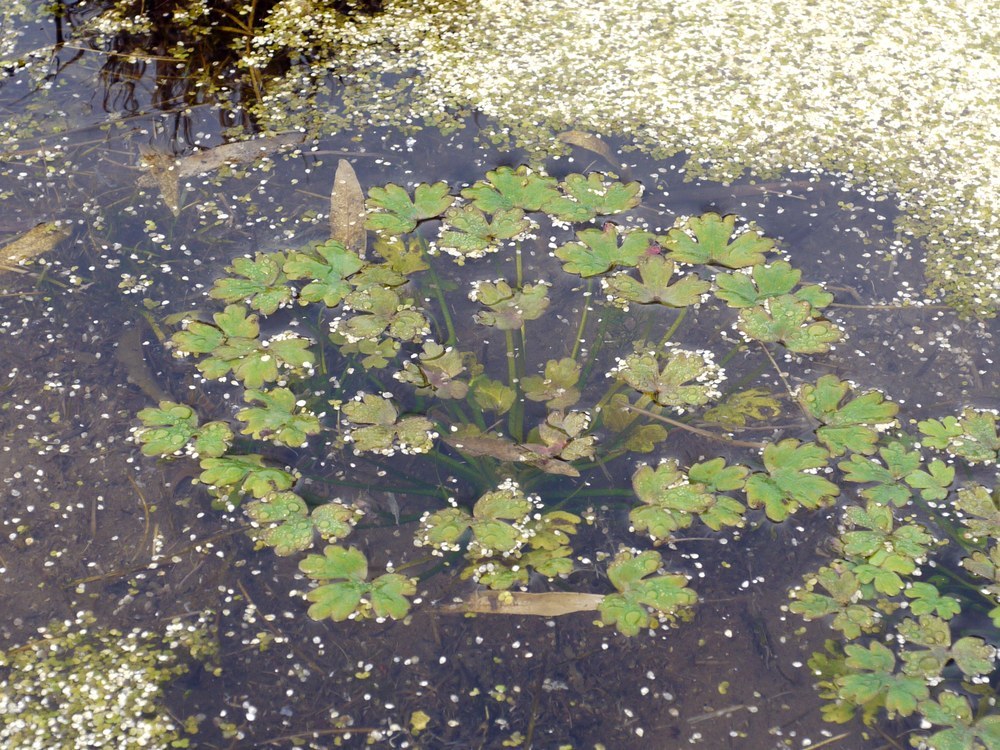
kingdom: Plantae
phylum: Tracheophyta
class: Magnoliopsida
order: Ranunculales
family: Ranunculaceae
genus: Ranunculus
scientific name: Ranunculus sceleratus
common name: Celery-leaved buttercup
